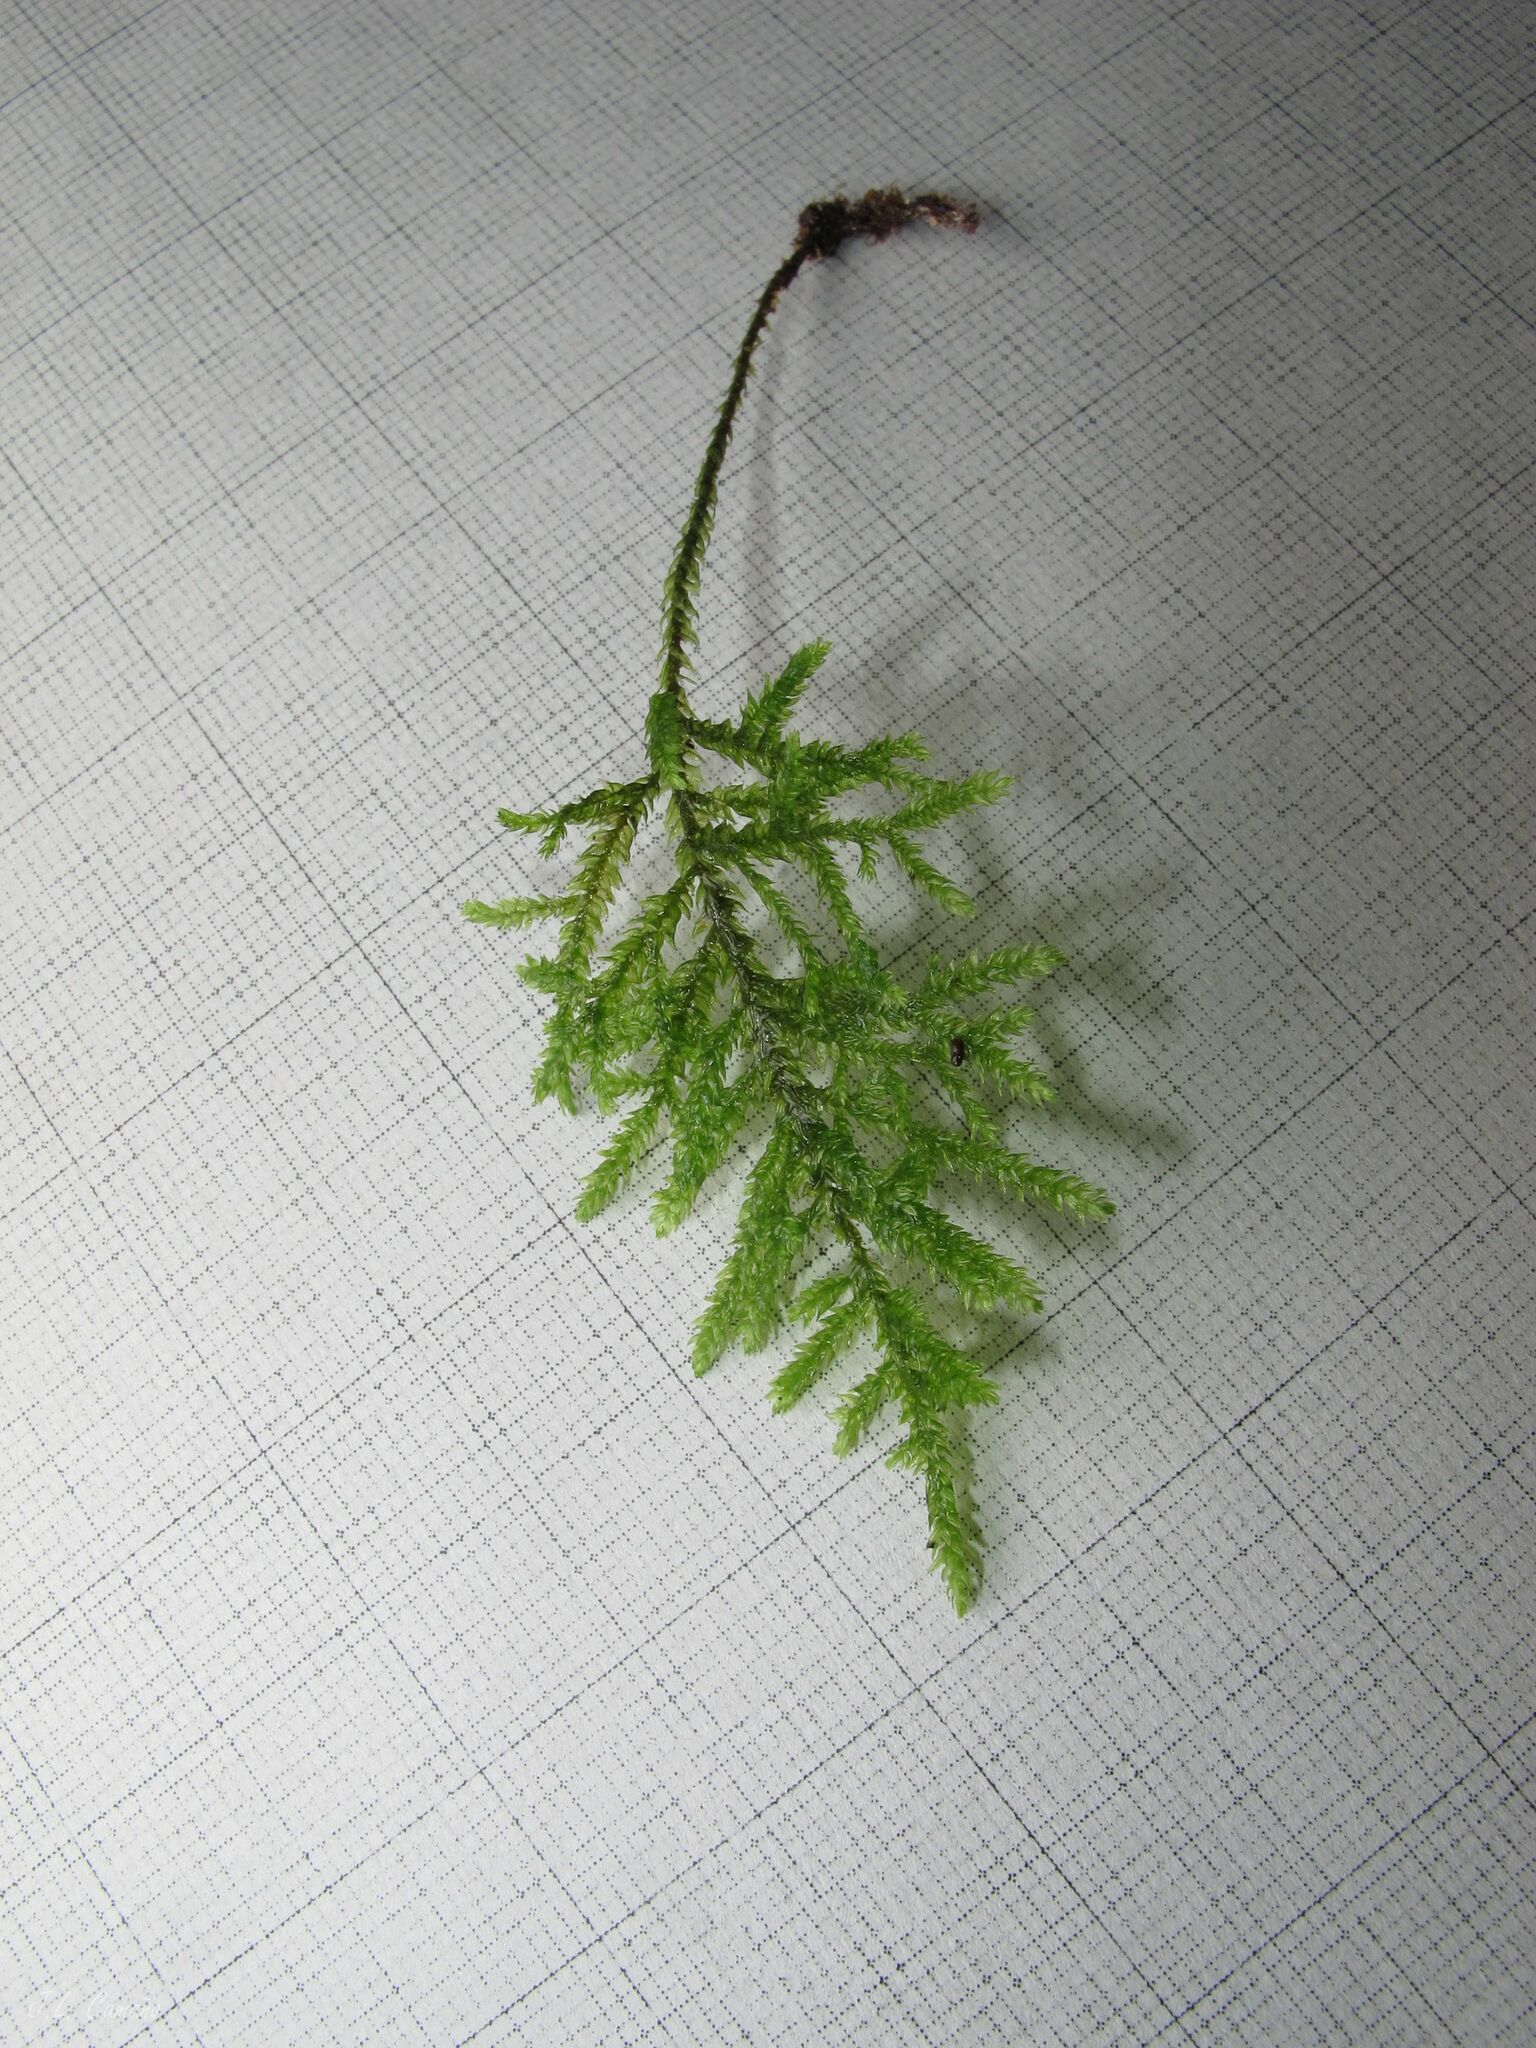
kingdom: Plantae
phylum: Bryophyta
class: Bryopsida
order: Hypnales
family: Neckeraceae
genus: Thamnobryum
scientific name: Thamnobryum alopecurum
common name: Fox-tail feather-moss
